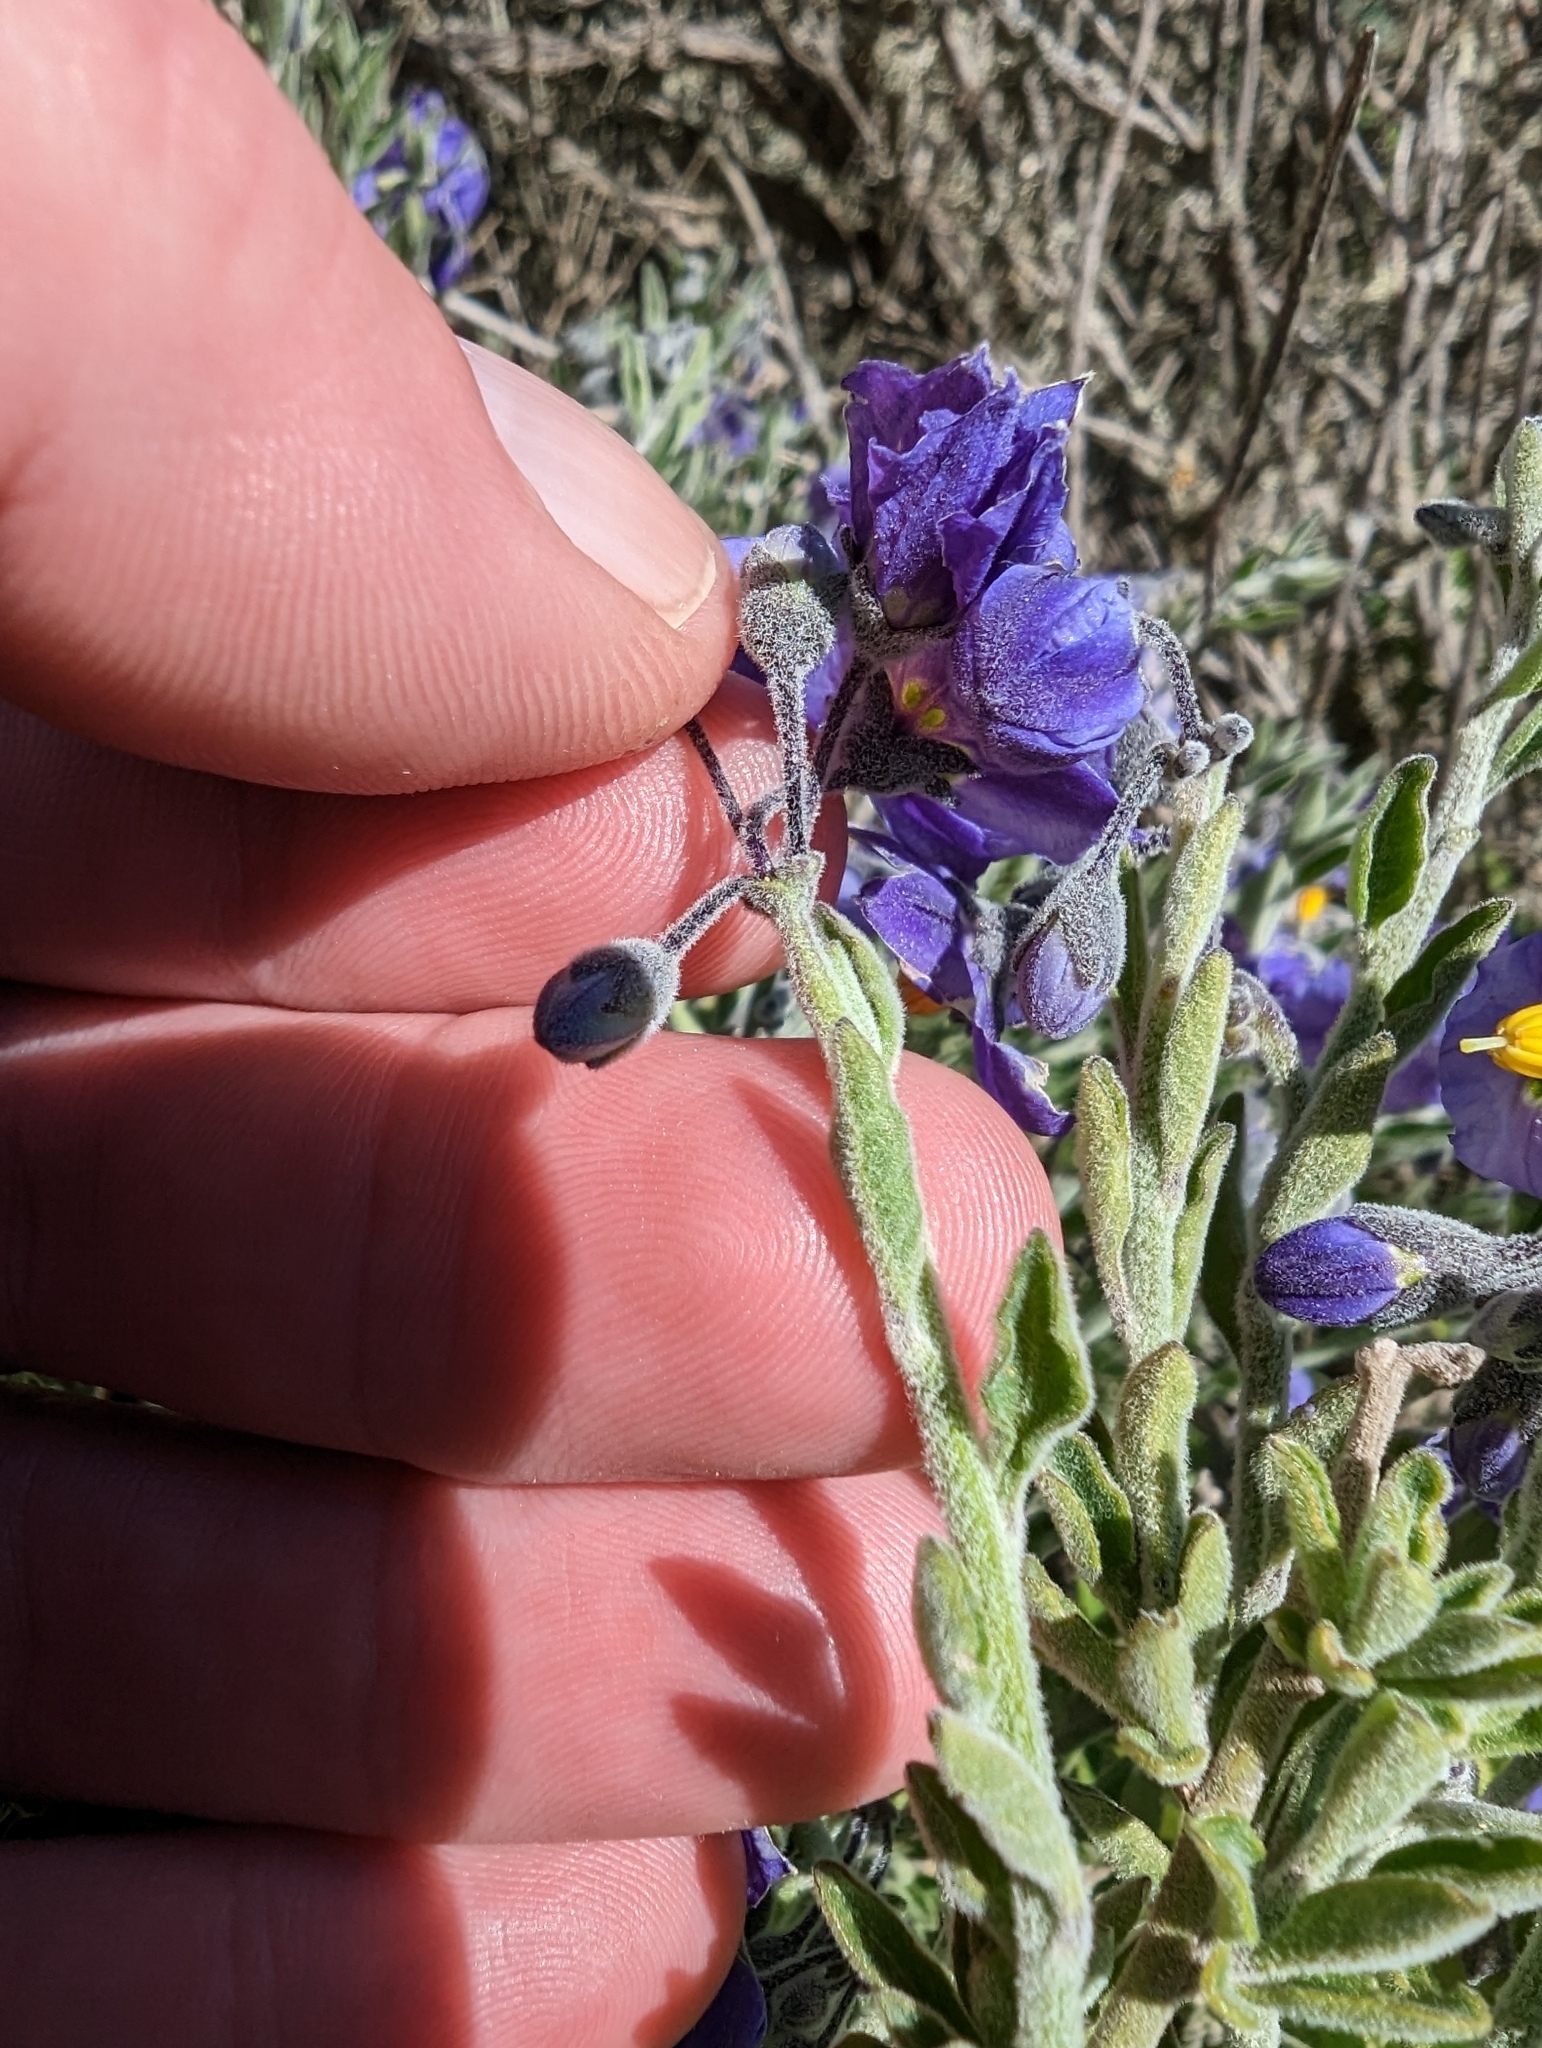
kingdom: Plantae
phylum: Tracheophyta
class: Magnoliopsida
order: Solanales
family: Solanaceae
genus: Solanum
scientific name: Solanum umbelliferum
